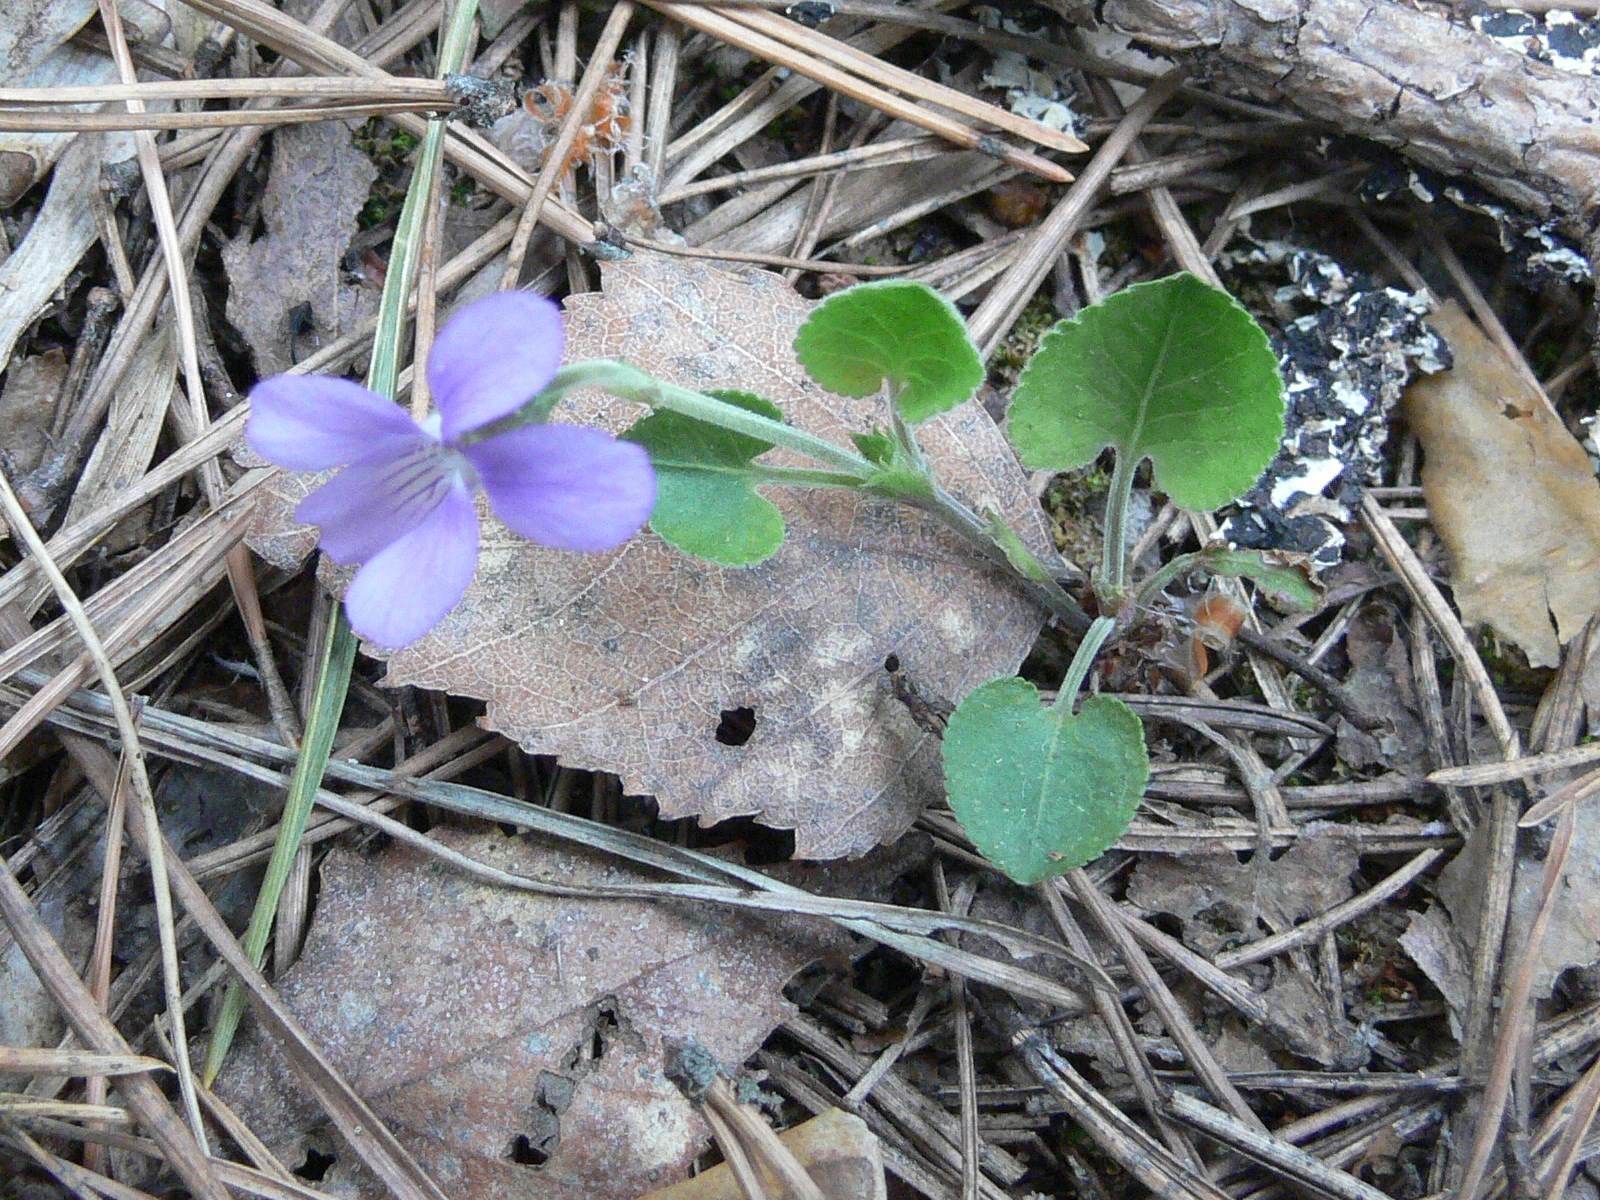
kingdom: Plantae
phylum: Tracheophyta
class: Magnoliopsida
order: Malpighiales
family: Violaceae
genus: Viola
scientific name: Viola rupestris
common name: Teesdale violet
